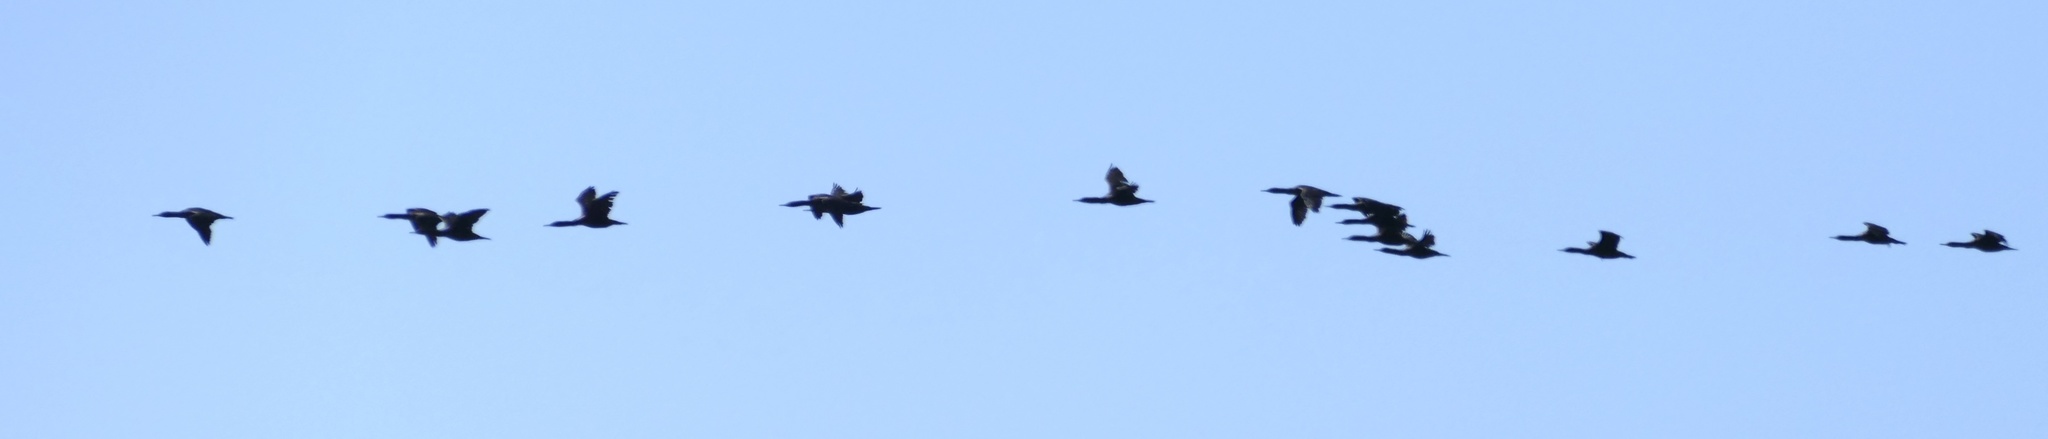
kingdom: Animalia
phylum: Chordata
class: Aves
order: Suliformes
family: Phalacrocoracidae
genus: Phalacrocorax
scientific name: Phalacrocorax capensis
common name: Cape cormorant
